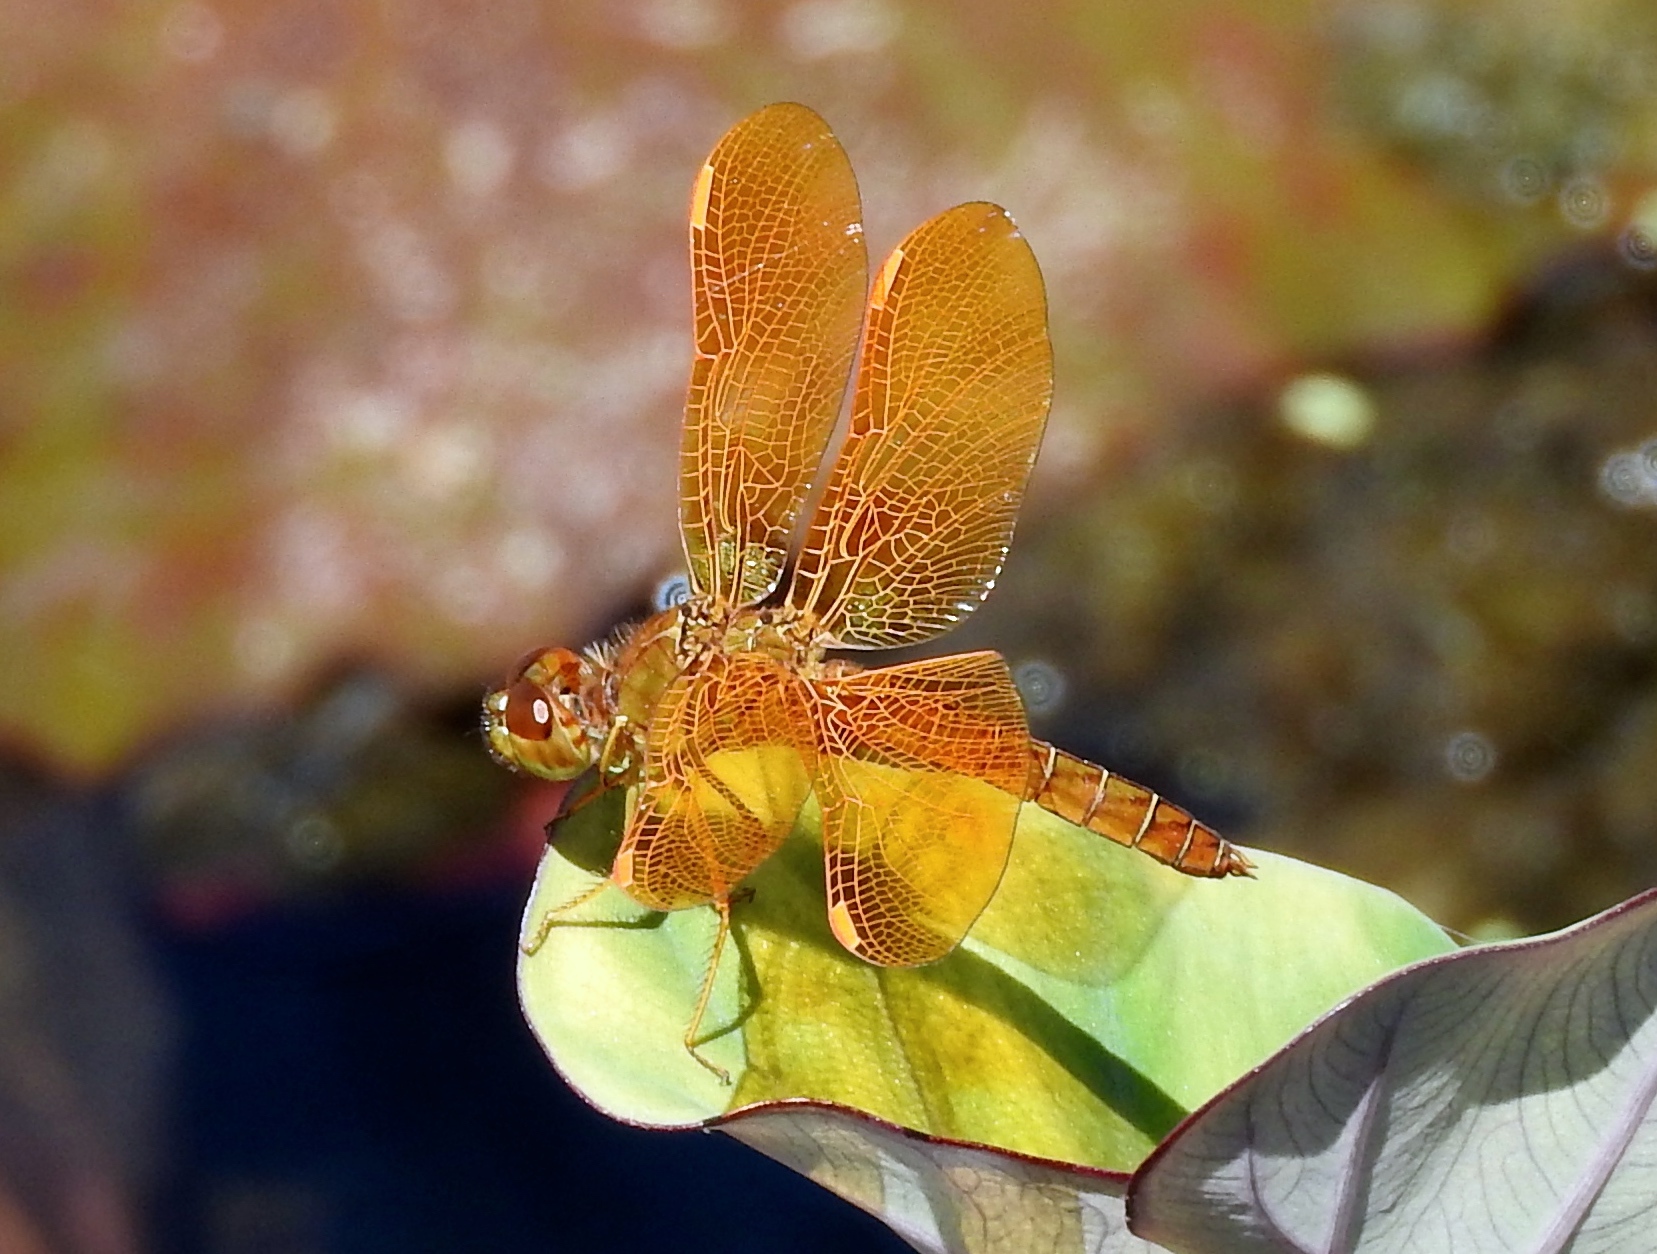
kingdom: Animalia
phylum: Arthropoda
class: Insecta
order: Odonata
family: Libellulidae
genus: Perithemis
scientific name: Perithemis intensa
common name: Mexican amberwing
